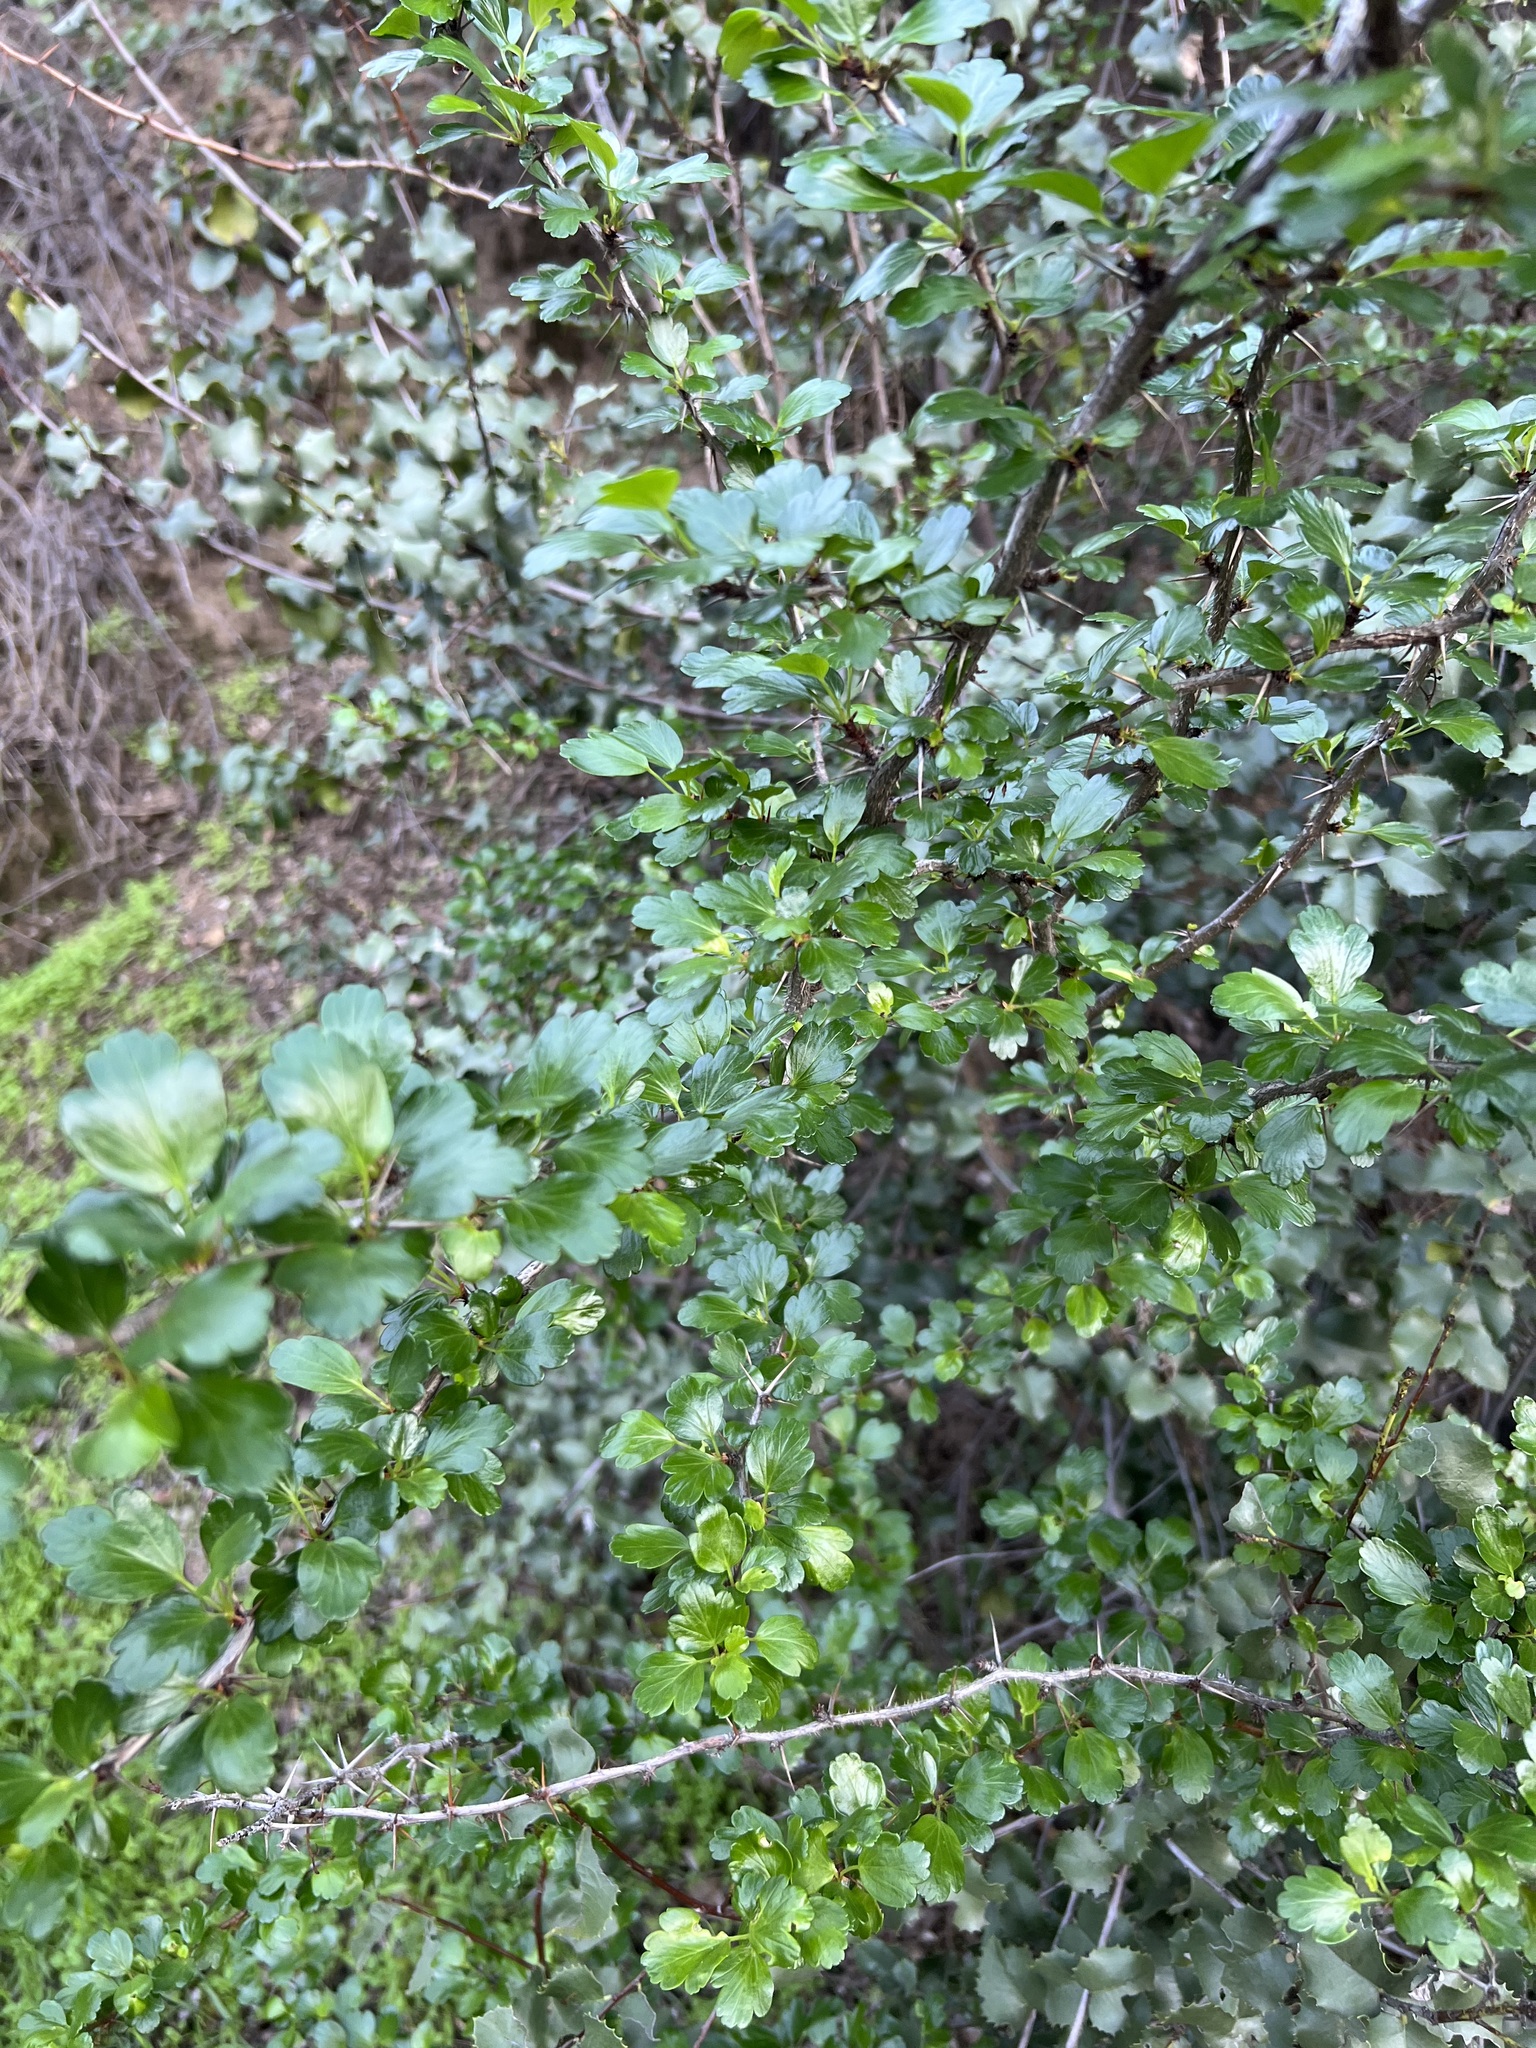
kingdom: Plantae
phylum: Tracheophyta
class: Magnoliopsida
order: Saxifragales
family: Grossulariaceae
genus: Ribes
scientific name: Ribes speciosum
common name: Fuchsia-flower gooseberry
